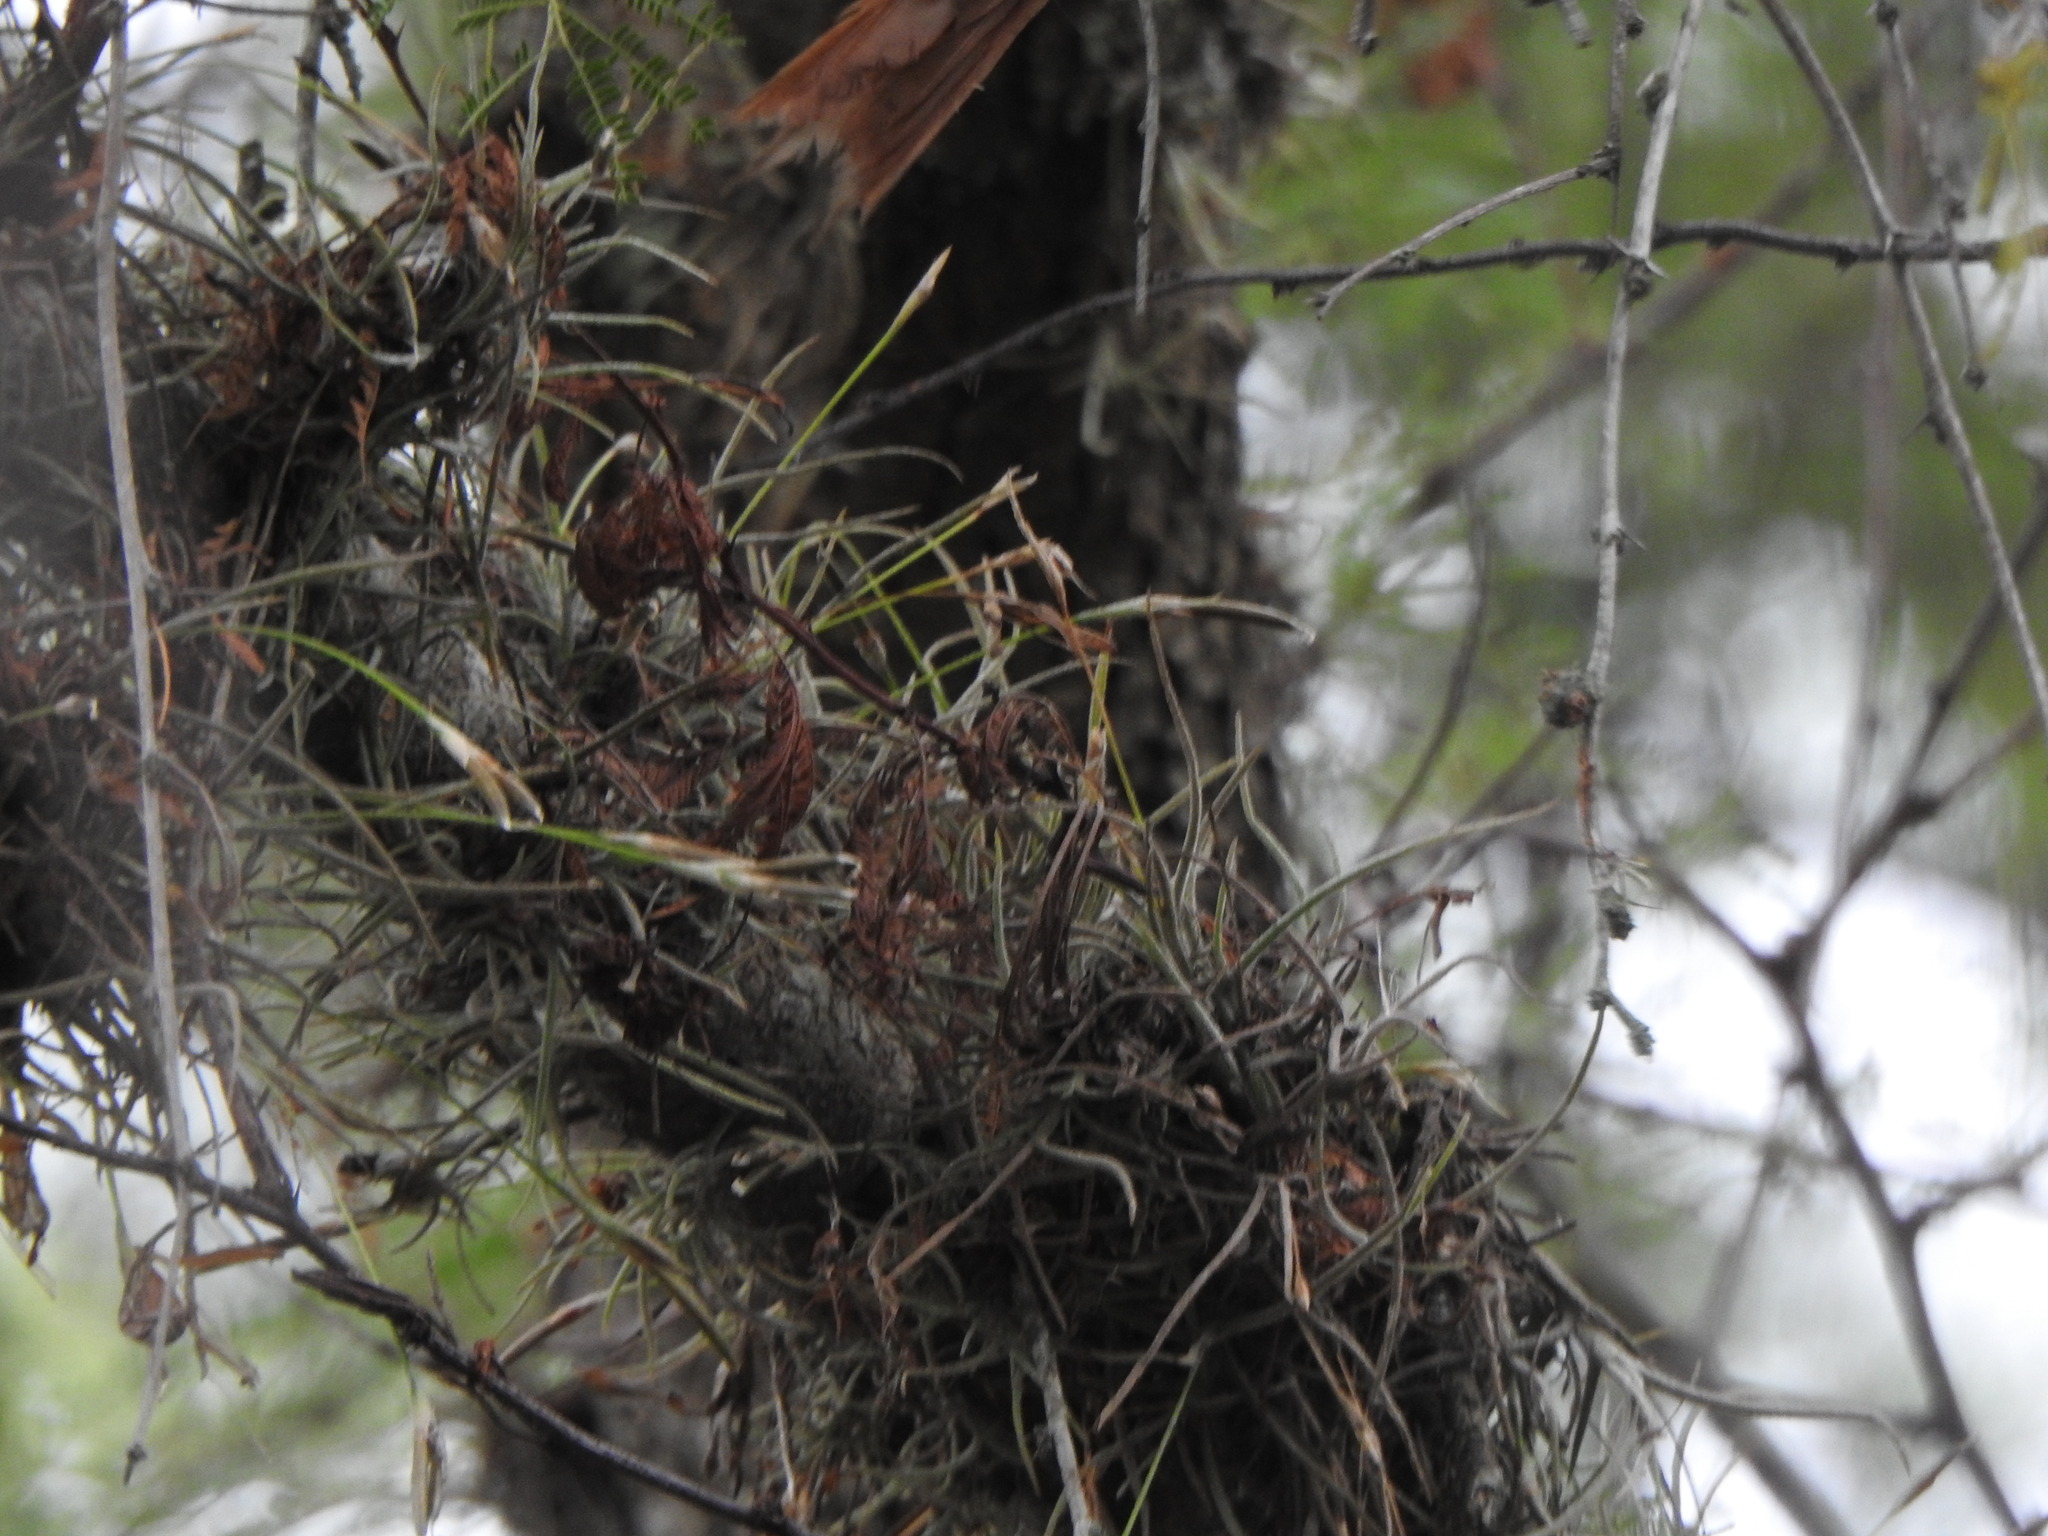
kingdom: Plantae
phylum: Tracheophyta
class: Liliopsida
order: Poales
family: Bromeliaceae
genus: Tillandsia
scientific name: Tillandsia recurvata
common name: Small ballmoss
